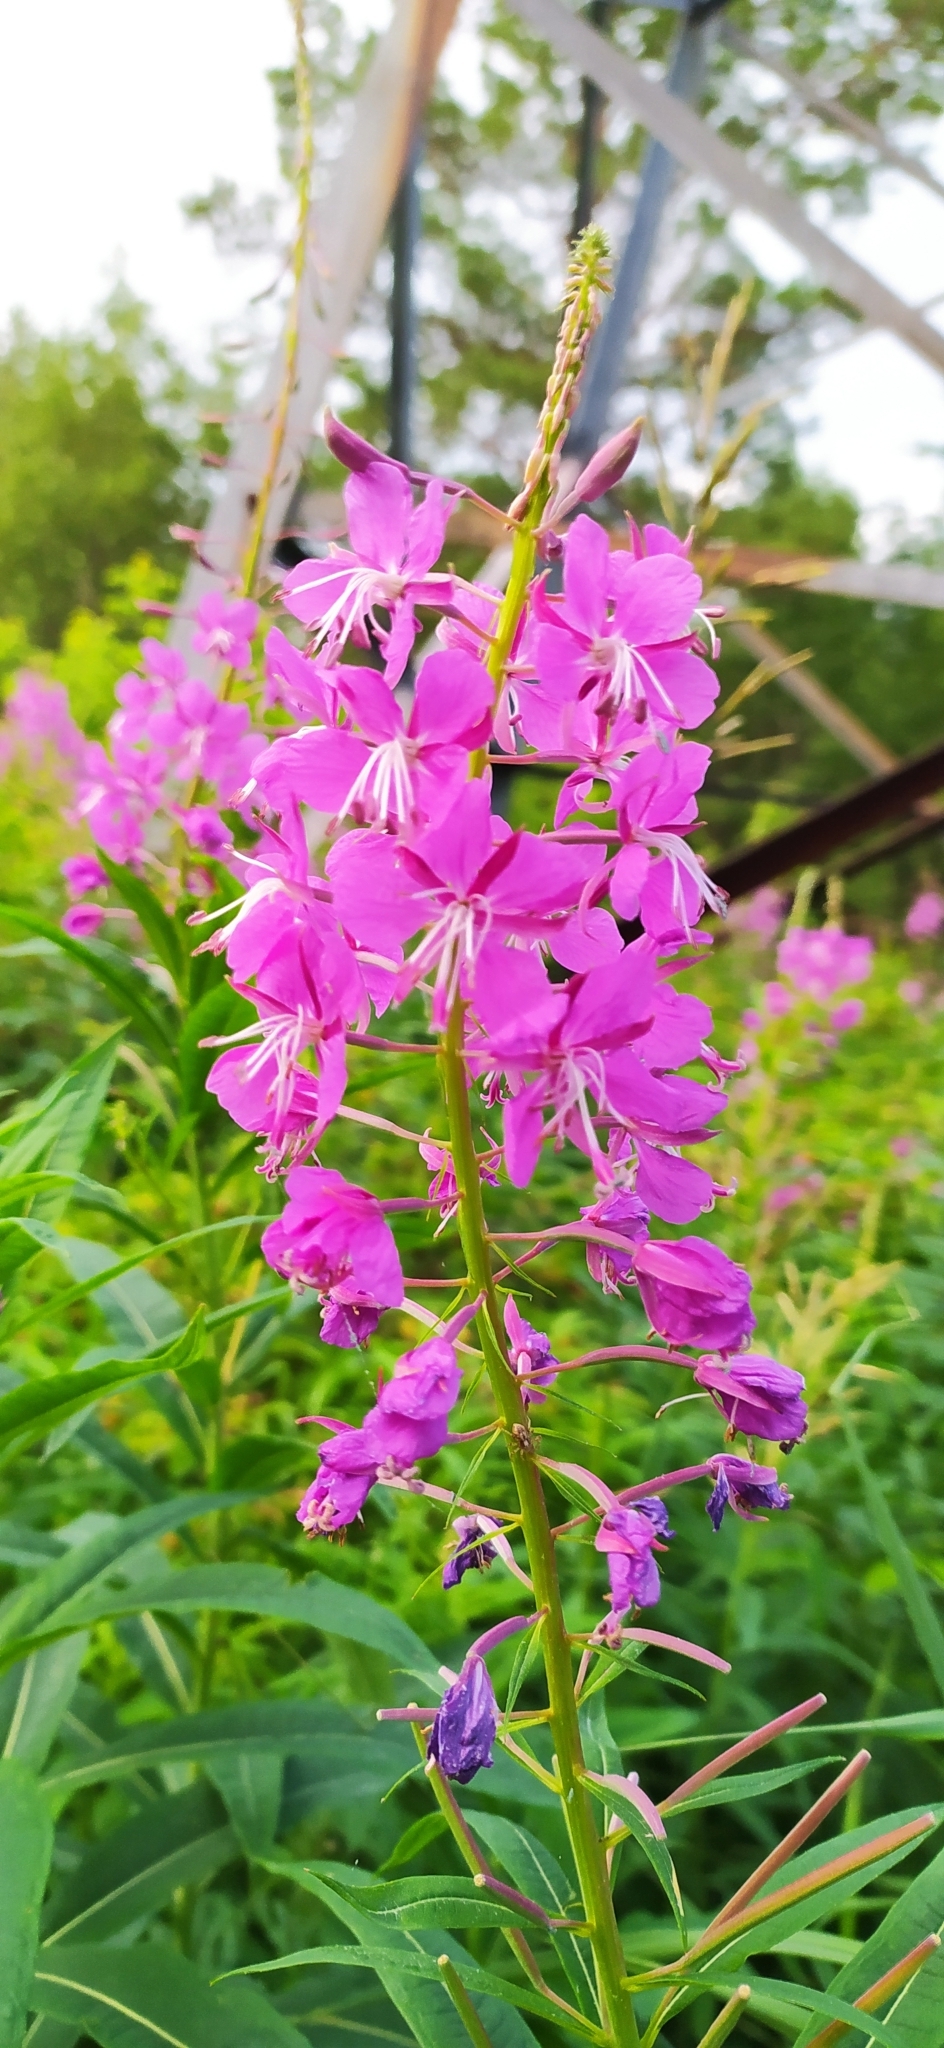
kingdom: Plantae
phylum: Tracheophyta
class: Magnoliopsida
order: Myrtales
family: Onagraceae
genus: Chamaenerion
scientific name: Chamaenerion angustifolium
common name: Fireweed
